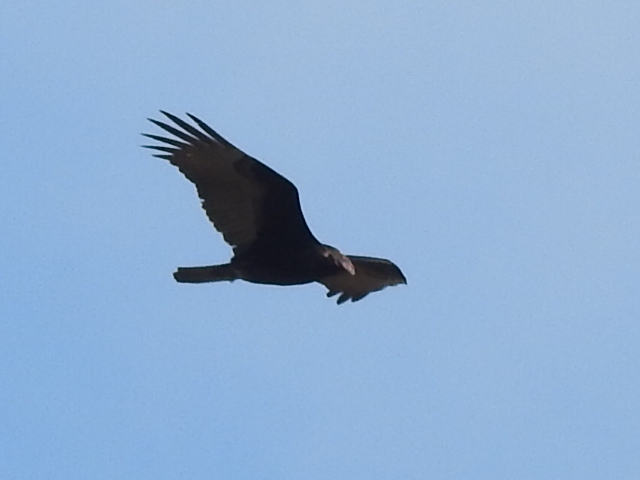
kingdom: Animalia
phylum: Chordata
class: Aves
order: Accipitriformes
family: Cathartidae
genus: Cathartes
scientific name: Cathartes aura
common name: Turkey vulture
